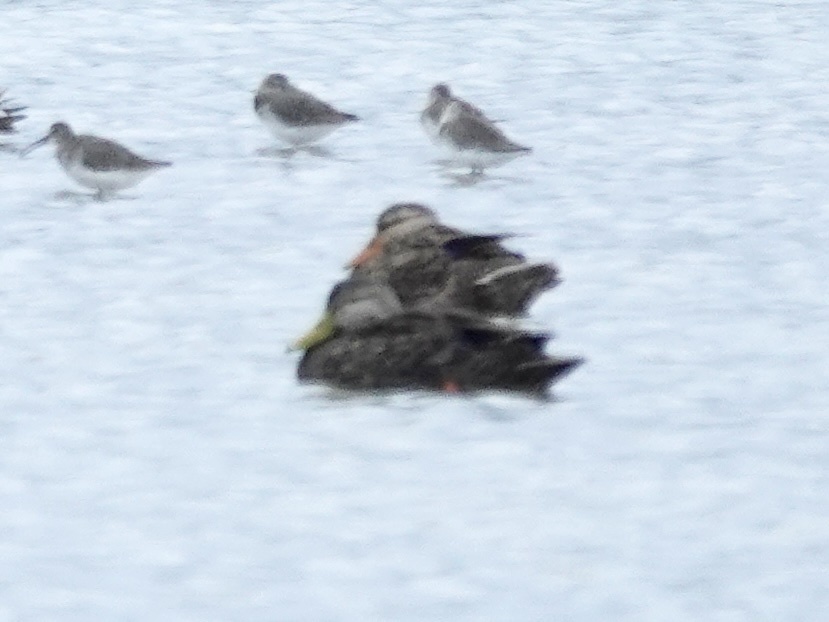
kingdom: Animalia
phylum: Chordata
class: Aves
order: Anseriformes
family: Anatidae
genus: Anas
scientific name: Anas fulvigula
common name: Mottled duck
